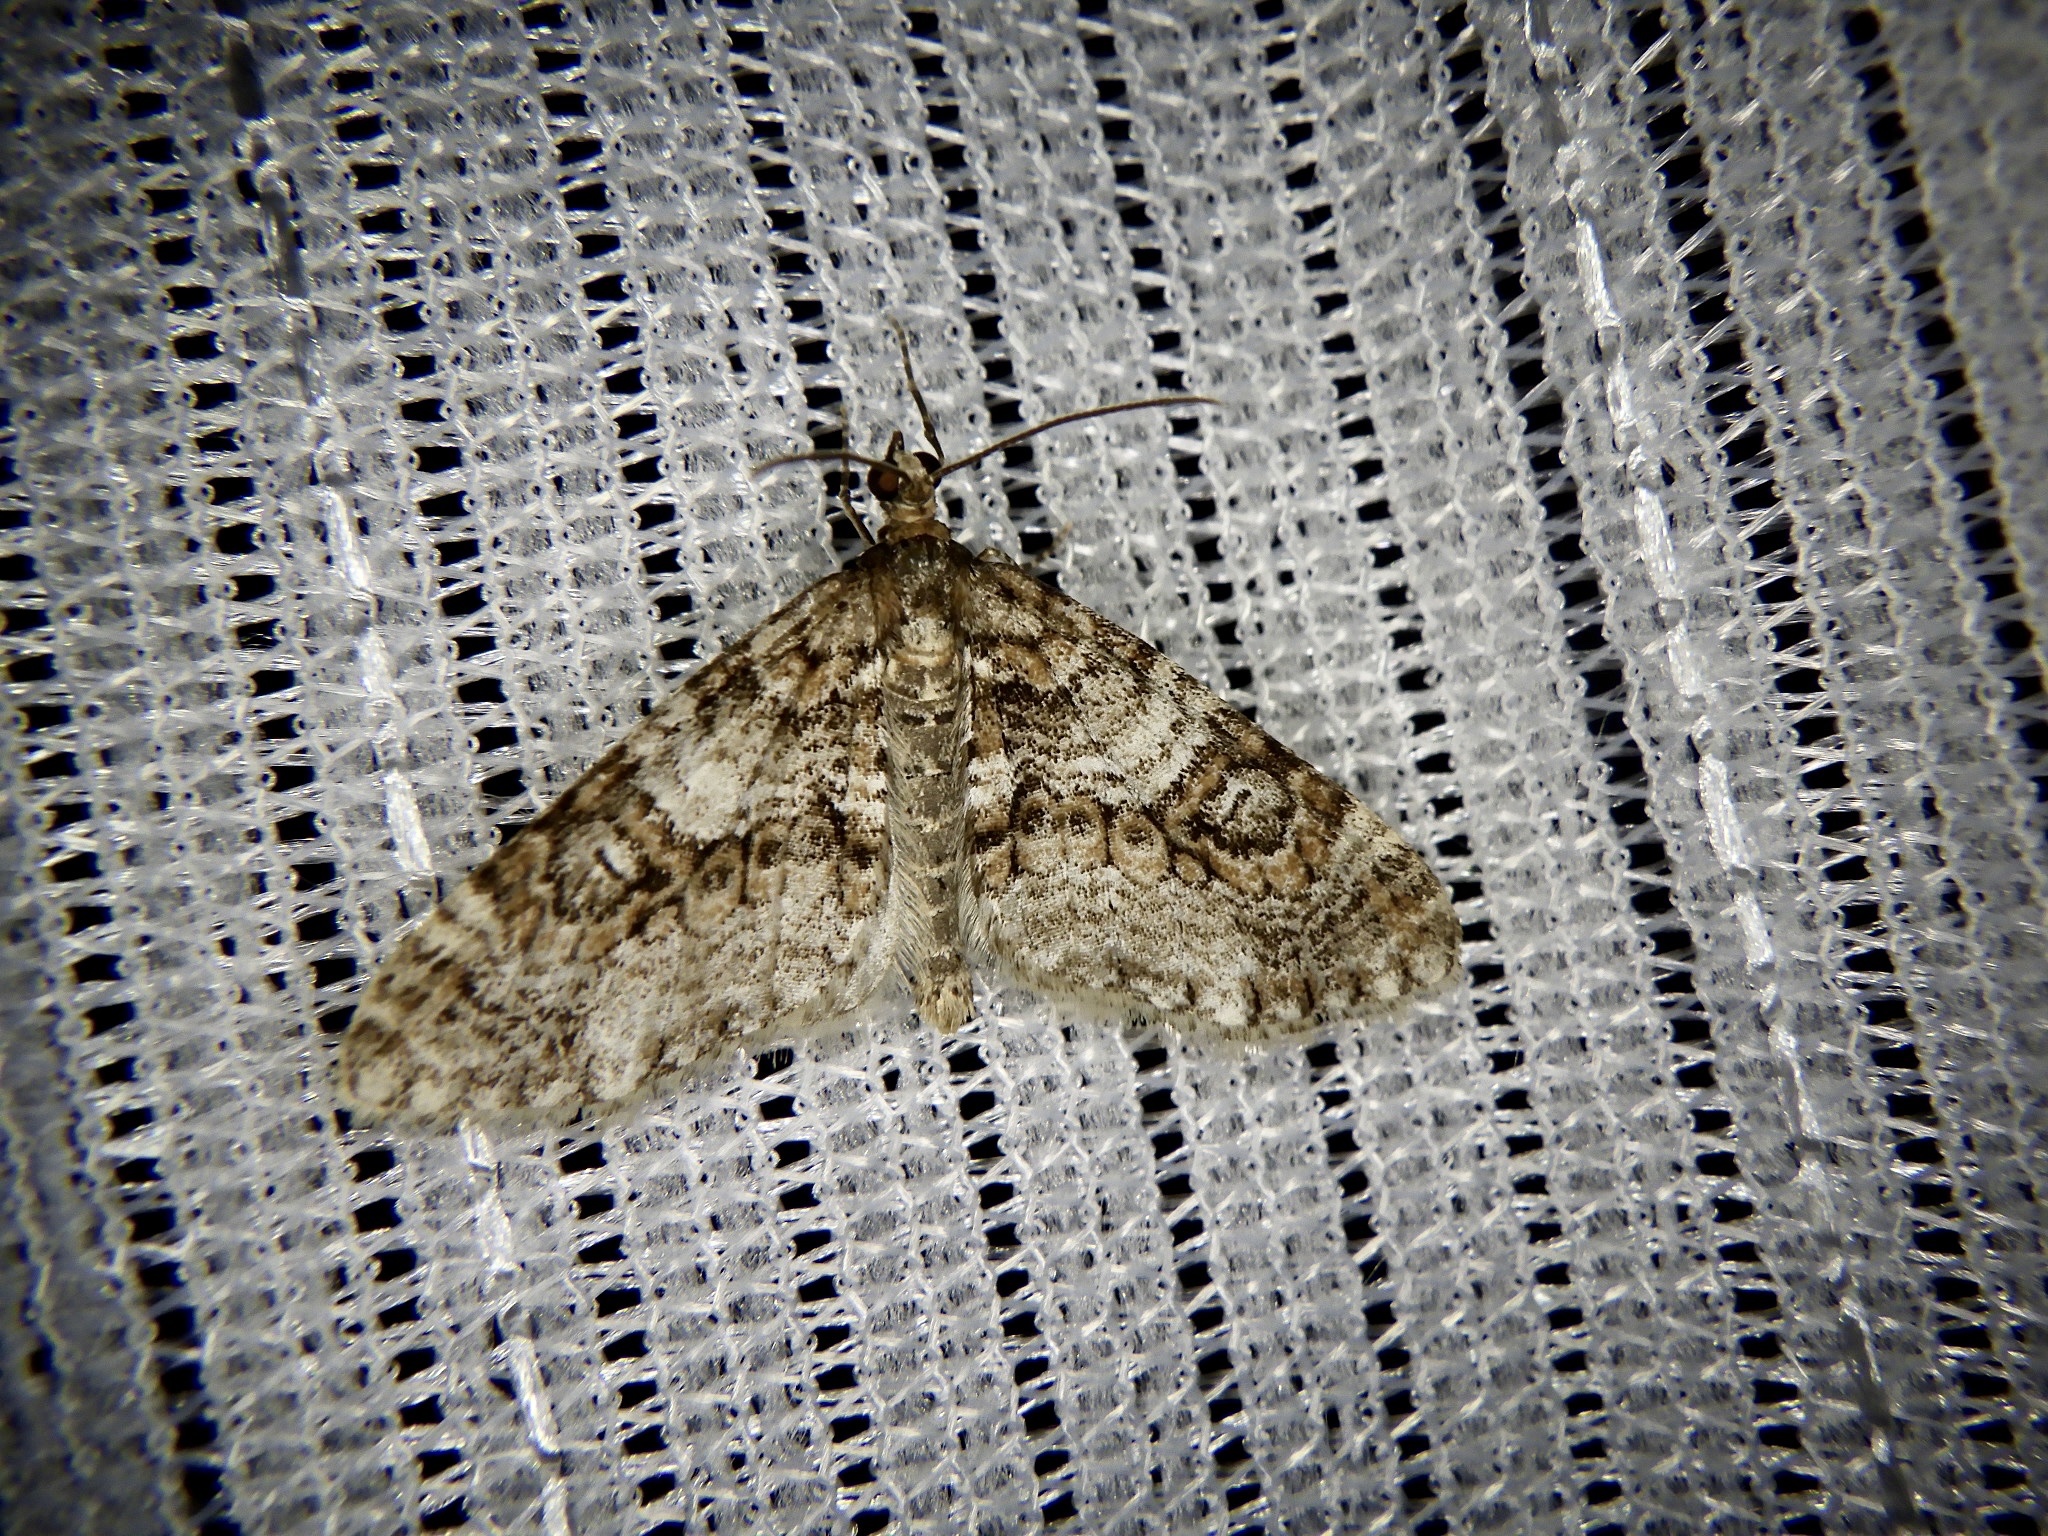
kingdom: Animalia
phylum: Arthropoda
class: Insecta
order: Lepidoptera
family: Geometridae
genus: Esakiopteryx
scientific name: Esakiopteryx volitans
